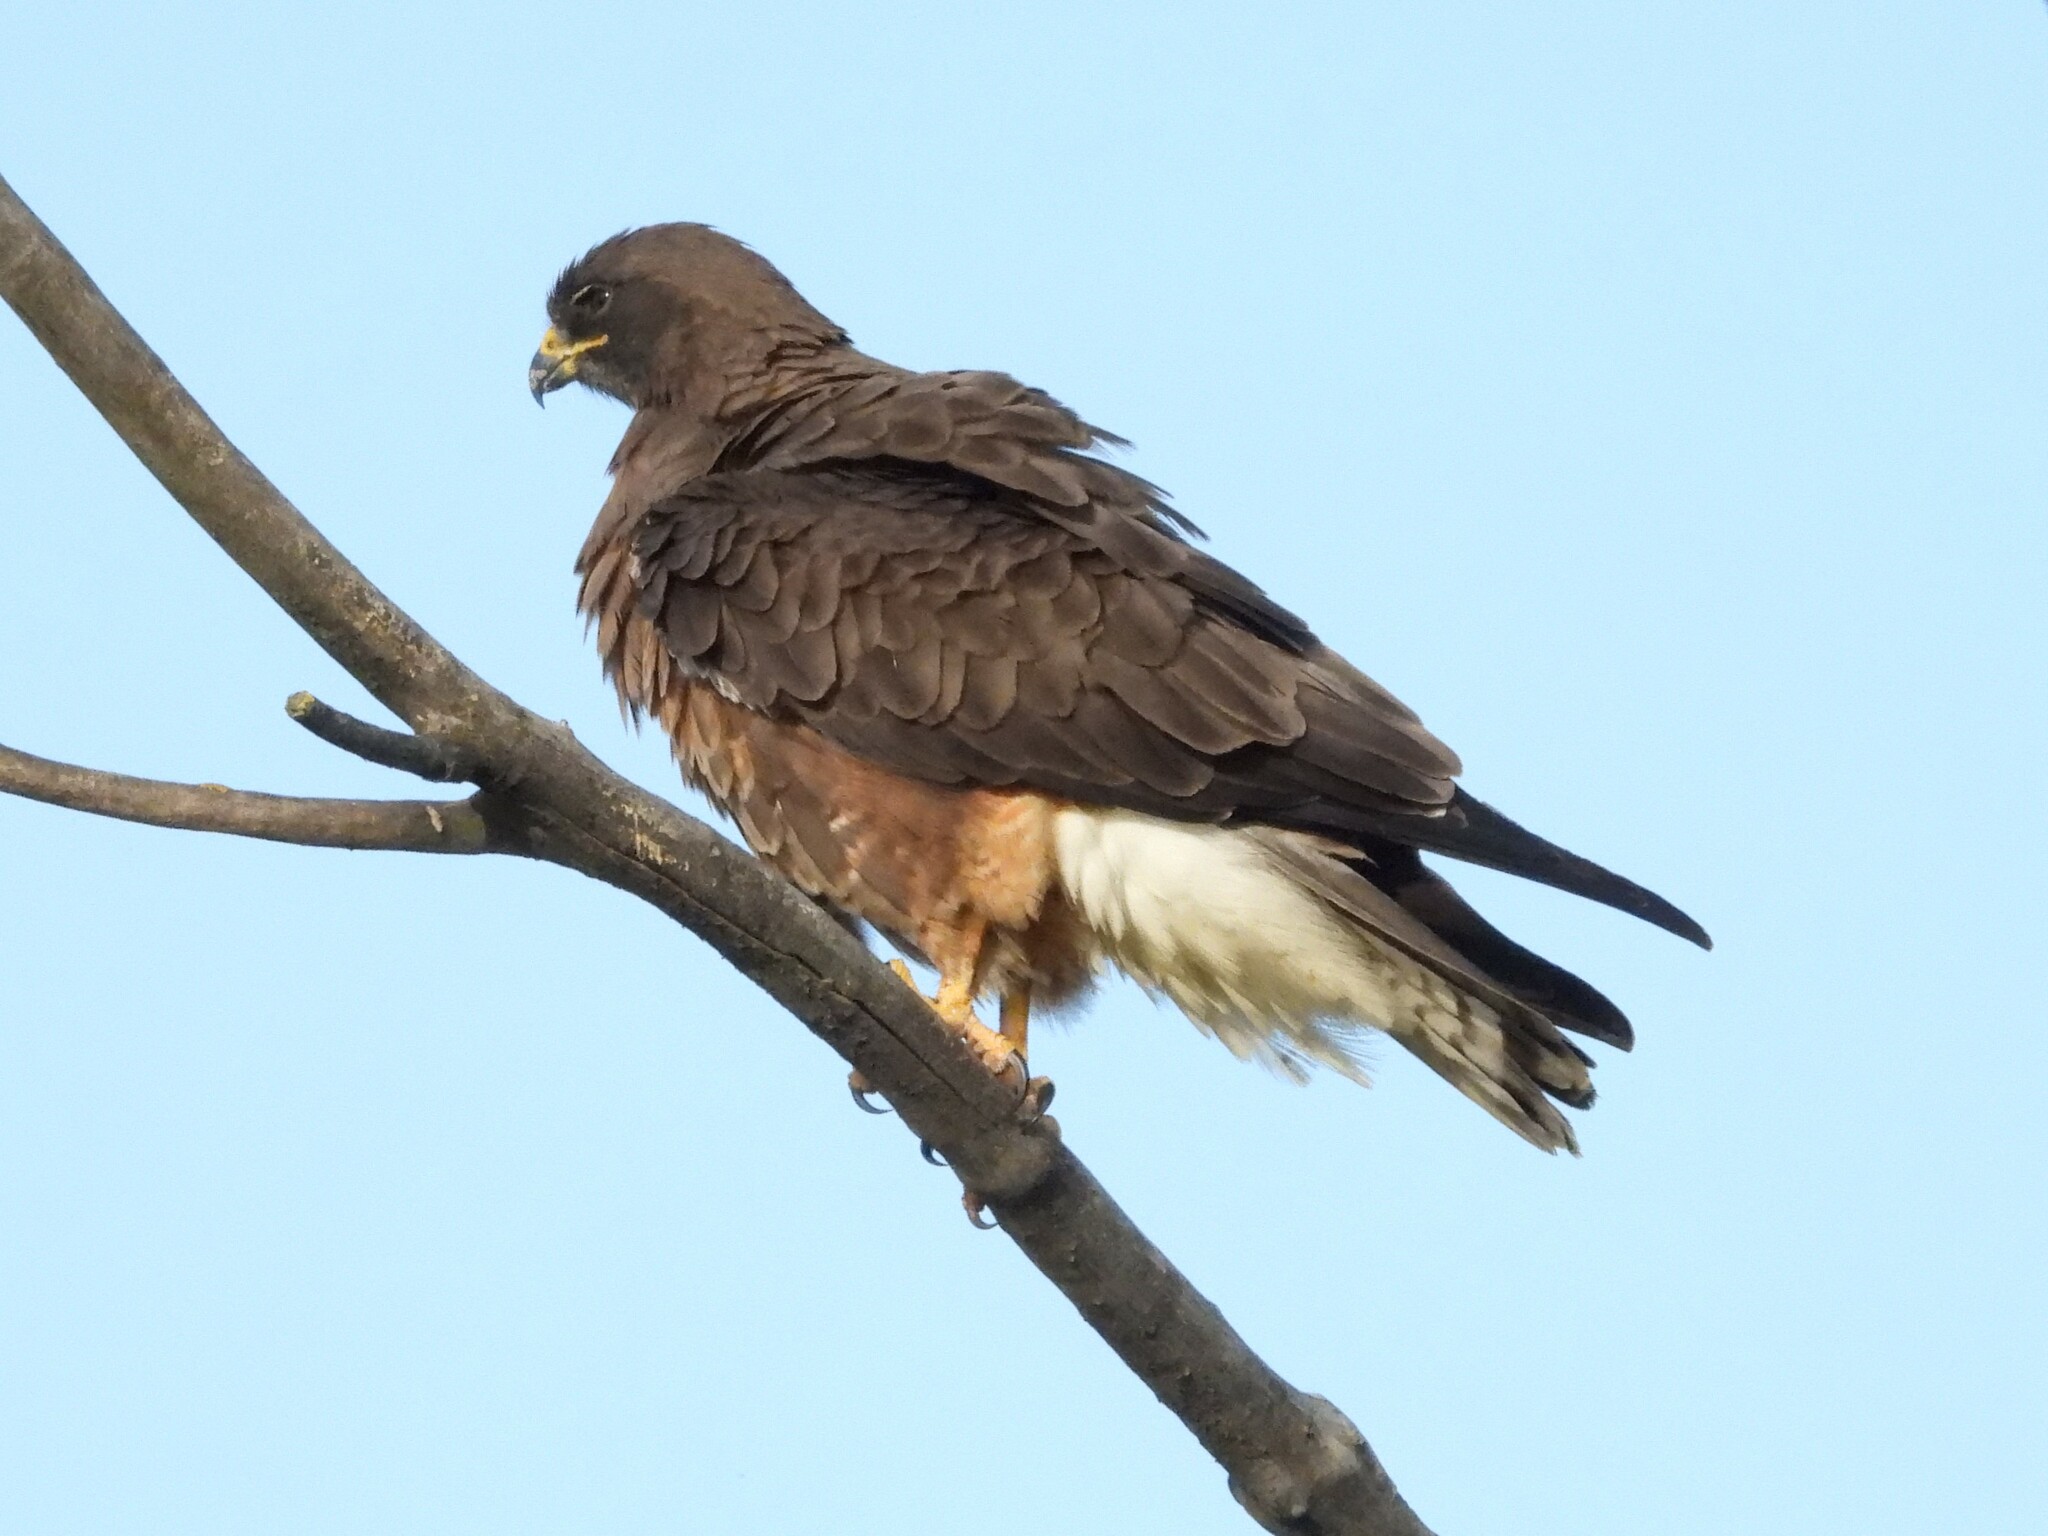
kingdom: Animalia
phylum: Chordata
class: Aves
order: Accipitriformes
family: Accipitridae
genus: Buteo
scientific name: Buteo swainsoni
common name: Swainson's hawk
